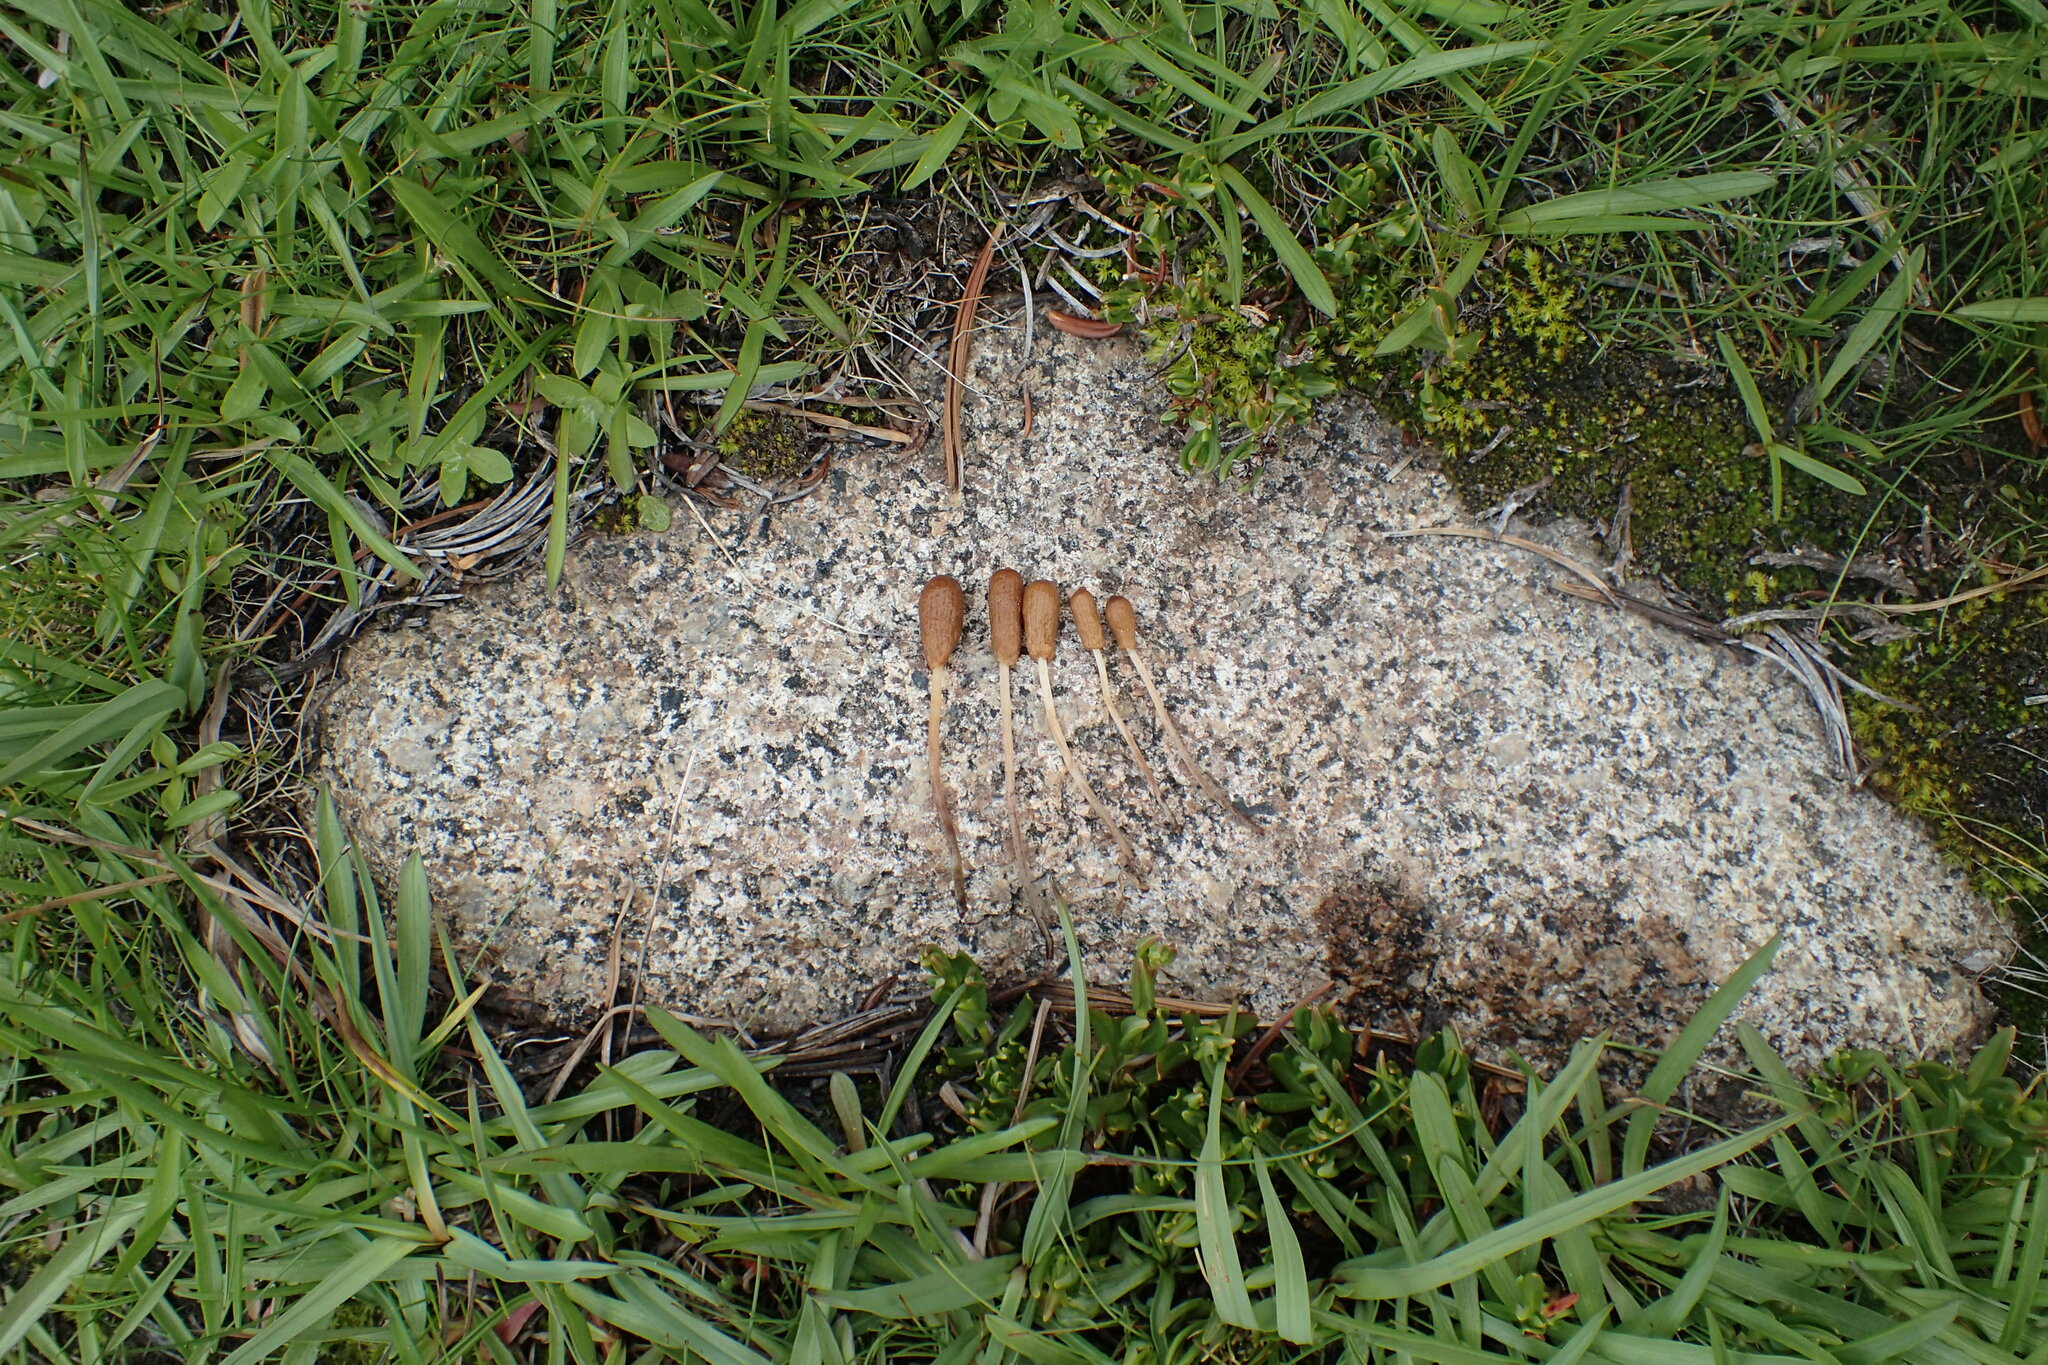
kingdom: Fungi
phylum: Basidiomycota
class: Agaricomycetes
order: Agaricales
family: Bolbitiaceae
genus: Galeropsis
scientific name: Galeropsis polytrichoides
